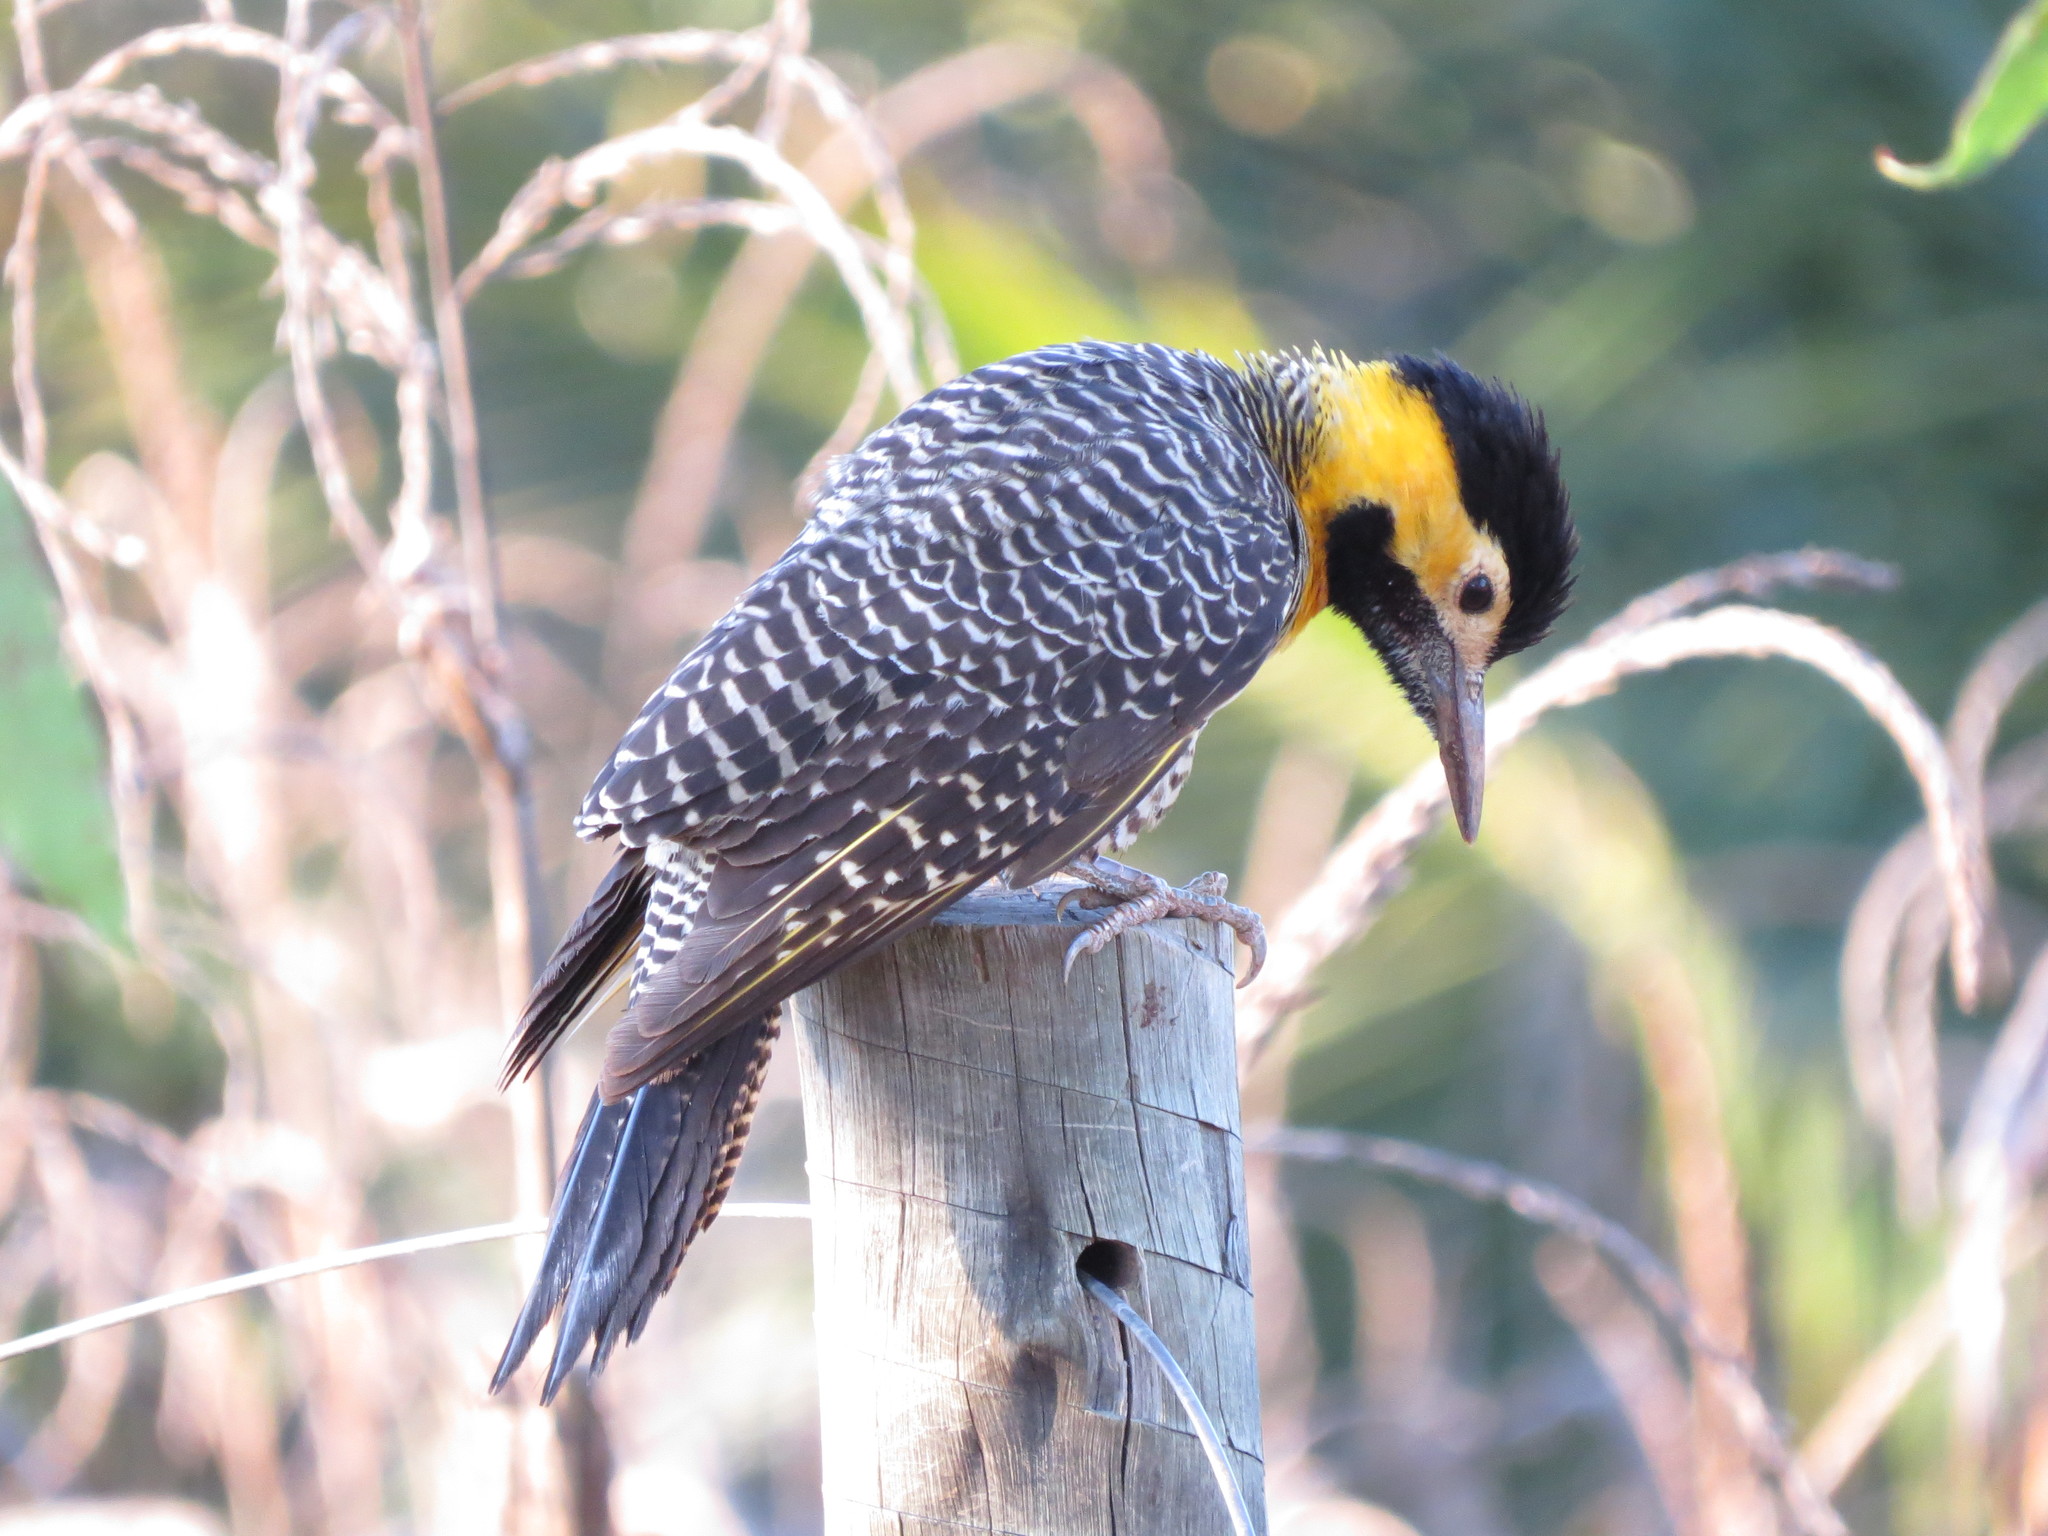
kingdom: Animalia
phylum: Chordata
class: Aves
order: Piciformes
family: Picidae
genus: Colaptes
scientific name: Colaptes campestris
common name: Campo flicker
